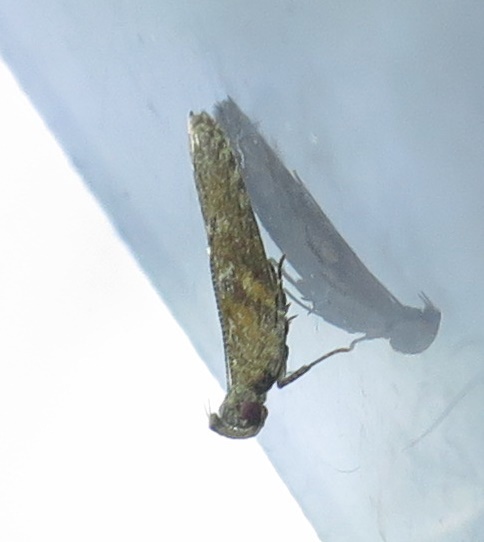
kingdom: Animalia
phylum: Arthropoda
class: Insecta
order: Lepidoptera
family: Depressariidae
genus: Eutorna
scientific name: Eutorna phaulocosma
